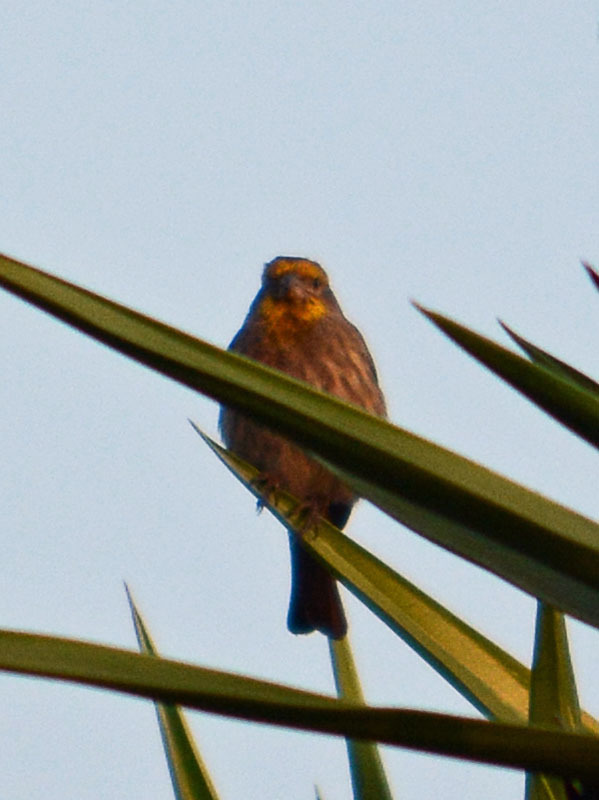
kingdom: Animalia
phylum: Chordata
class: Aves
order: Passeriformes
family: Fringillidae
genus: Haemorhous
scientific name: Haemorhous mexicanus
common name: House finch
